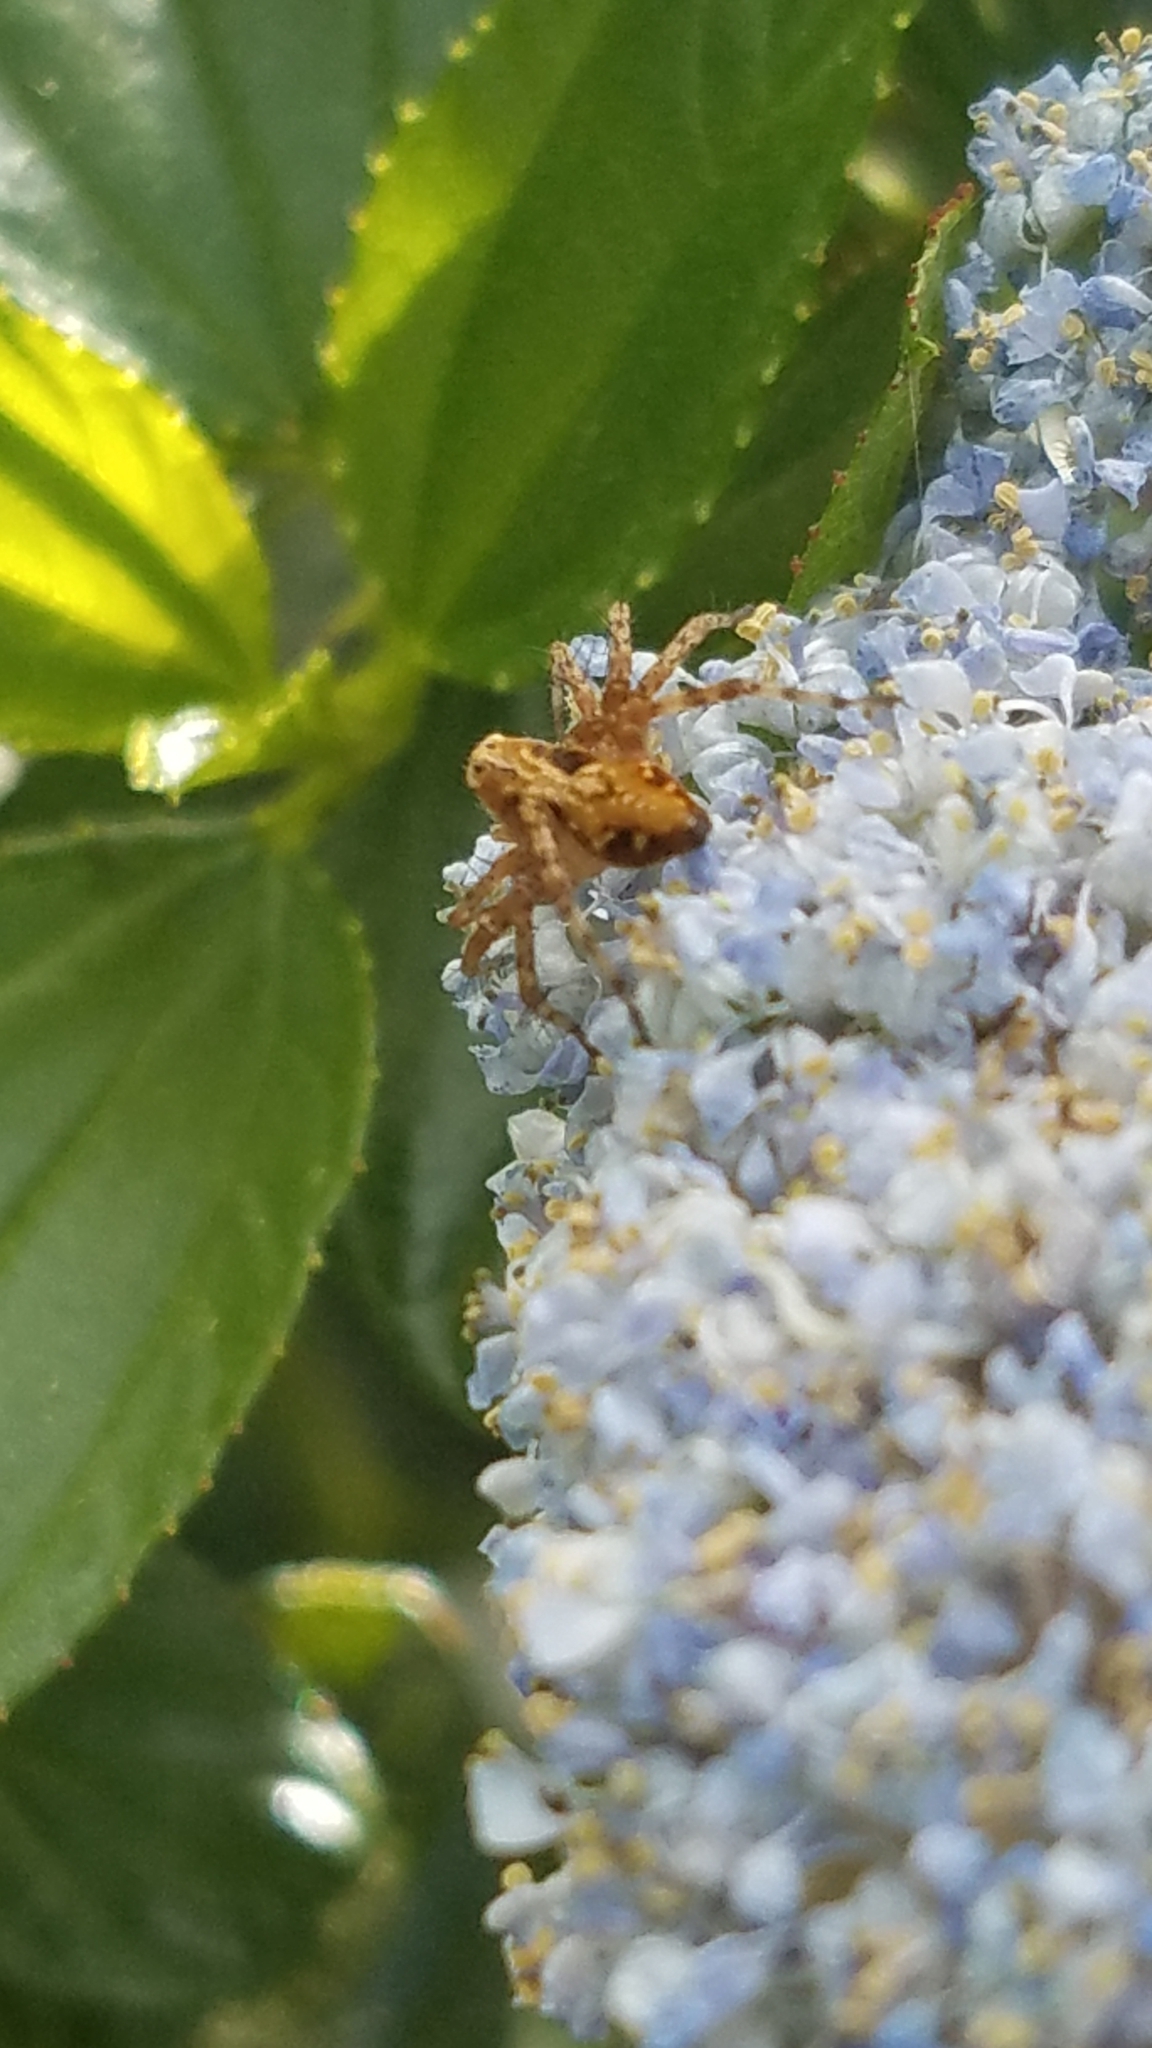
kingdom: Animalia
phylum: Arthropoda
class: Arachnida
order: Araneae
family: Oxyopidae
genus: Oxyopes
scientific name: Oxyopes scalaris
